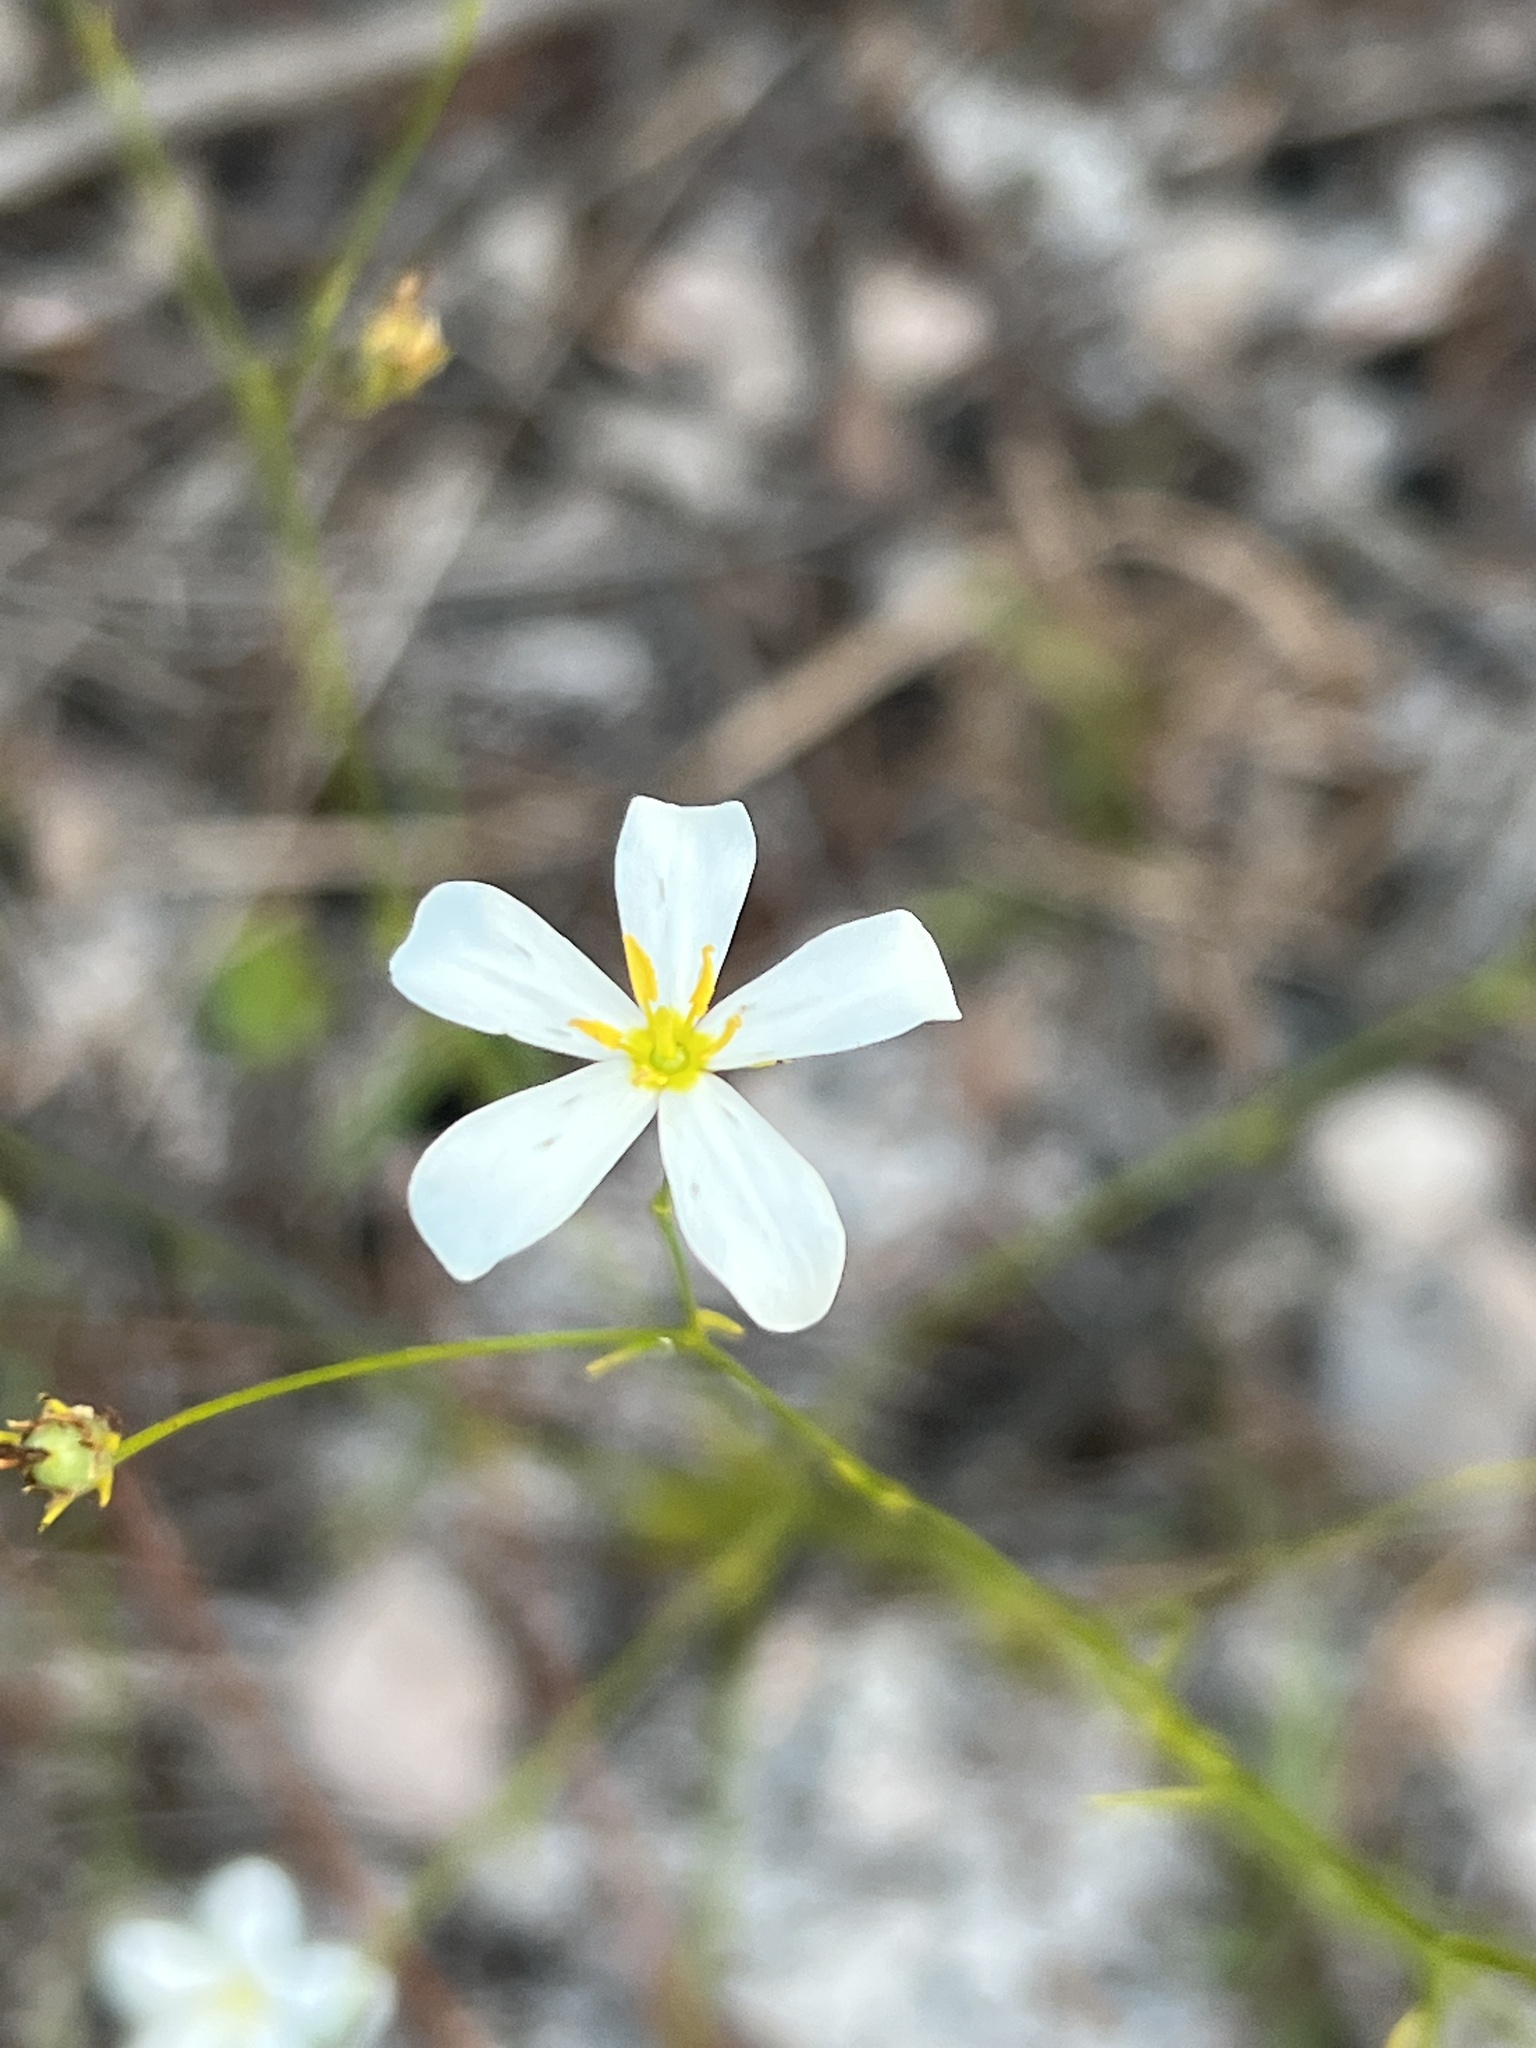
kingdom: Plantae
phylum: Tracheophyta
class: Magnoliopsida
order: Gentianales
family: Gentianaceae
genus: Sabatia
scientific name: Sabatia brevifolia
